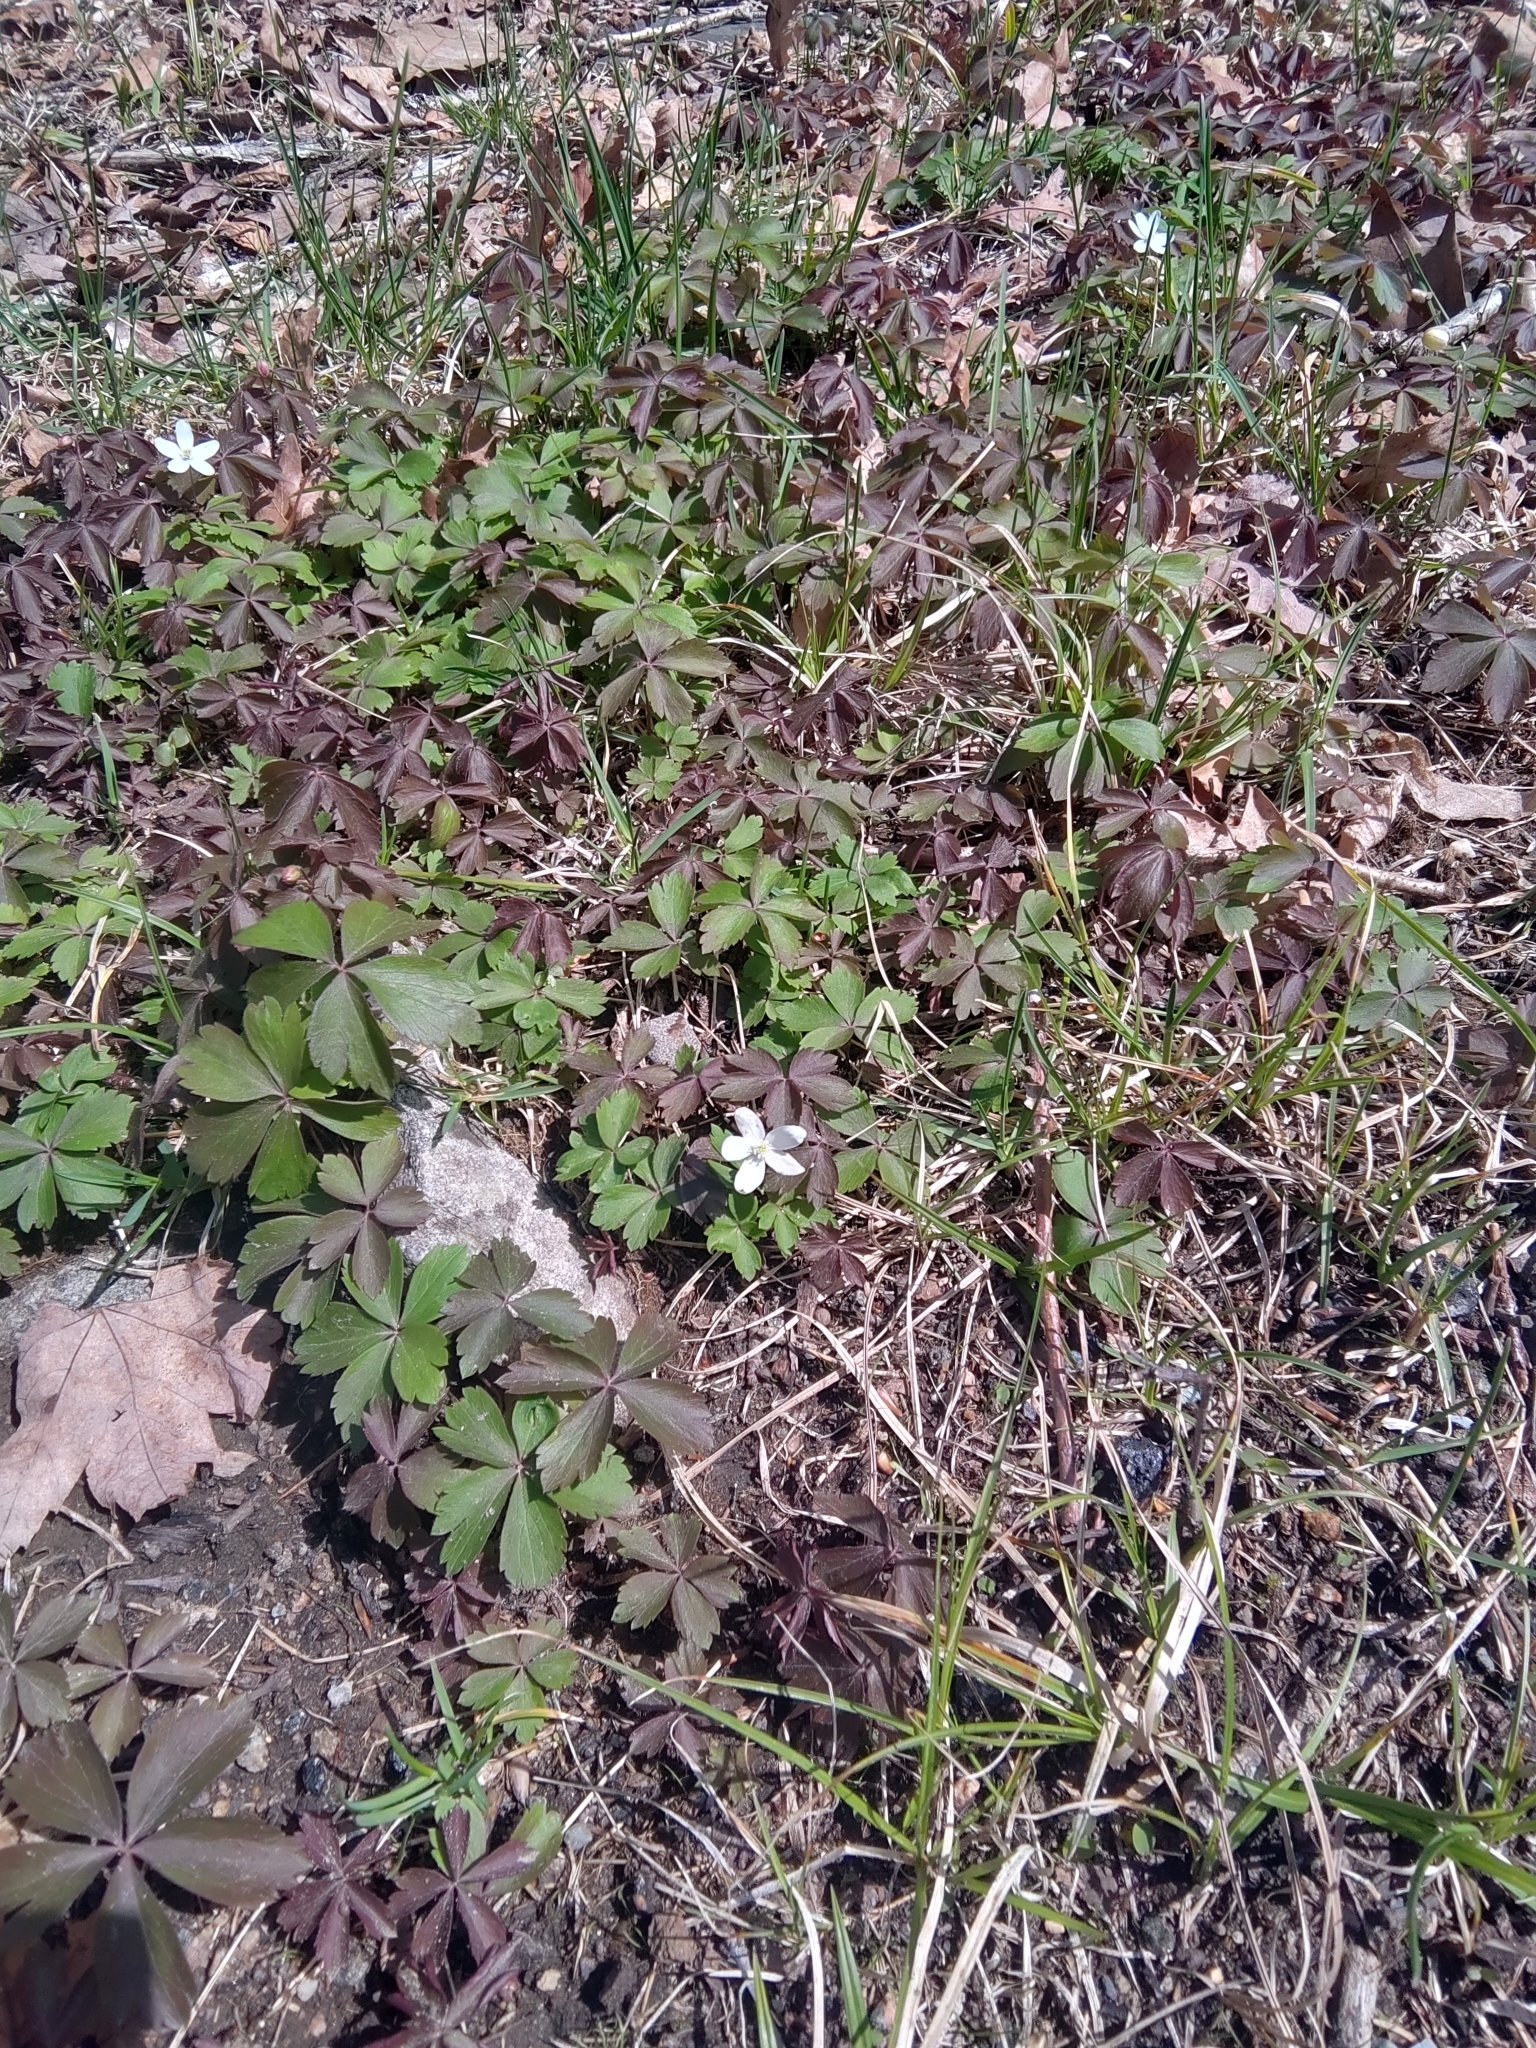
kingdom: Plantae
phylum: Tracheophyta
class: Magnoliopsida
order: Ranunculales
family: Ranunculaceae
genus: Anemone
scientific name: Anemone quinquefolia
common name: Wood anemone
